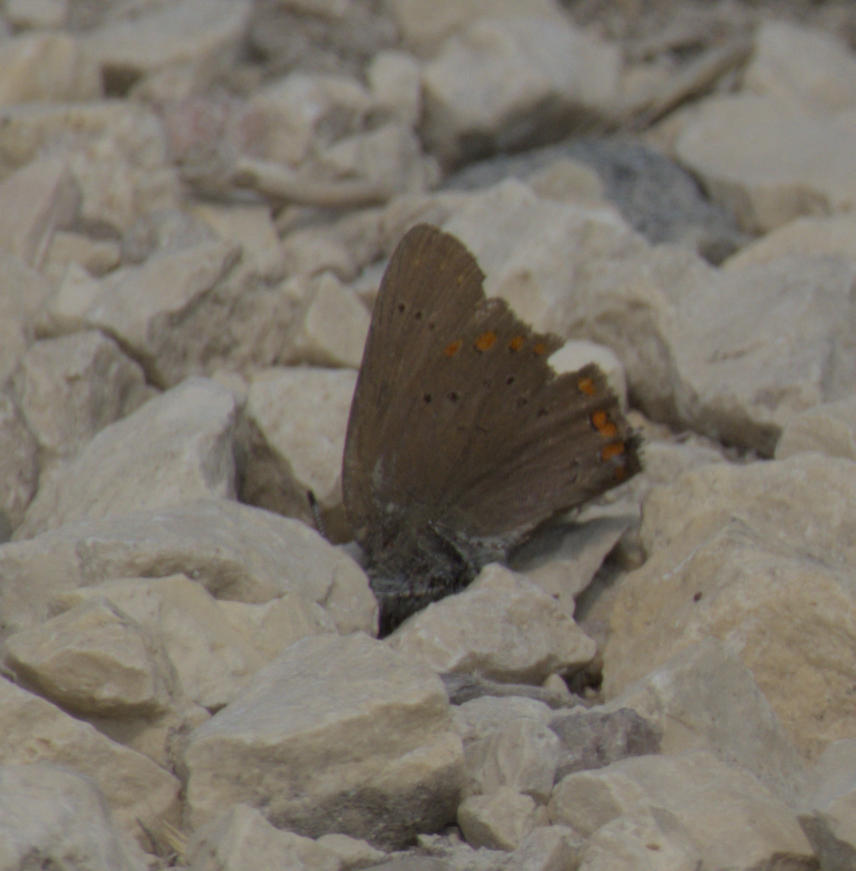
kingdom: Animalia
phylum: Arthropoda
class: Insecta
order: Lepidoptera
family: Lycaenidae
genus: Harkenclenus
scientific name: Harkenclenus titus
